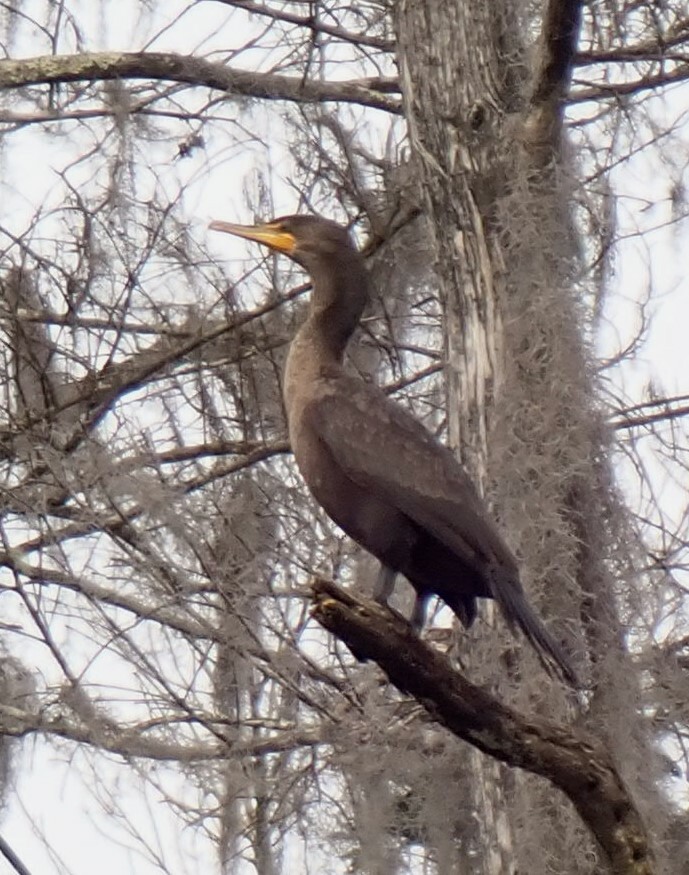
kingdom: Animalia
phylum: Chordata
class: Aves
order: Suliformes
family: Phalacrocoracidae
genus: Phalacrocorax
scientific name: Phalacrocorax auritus
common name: Double-crested cormorant
